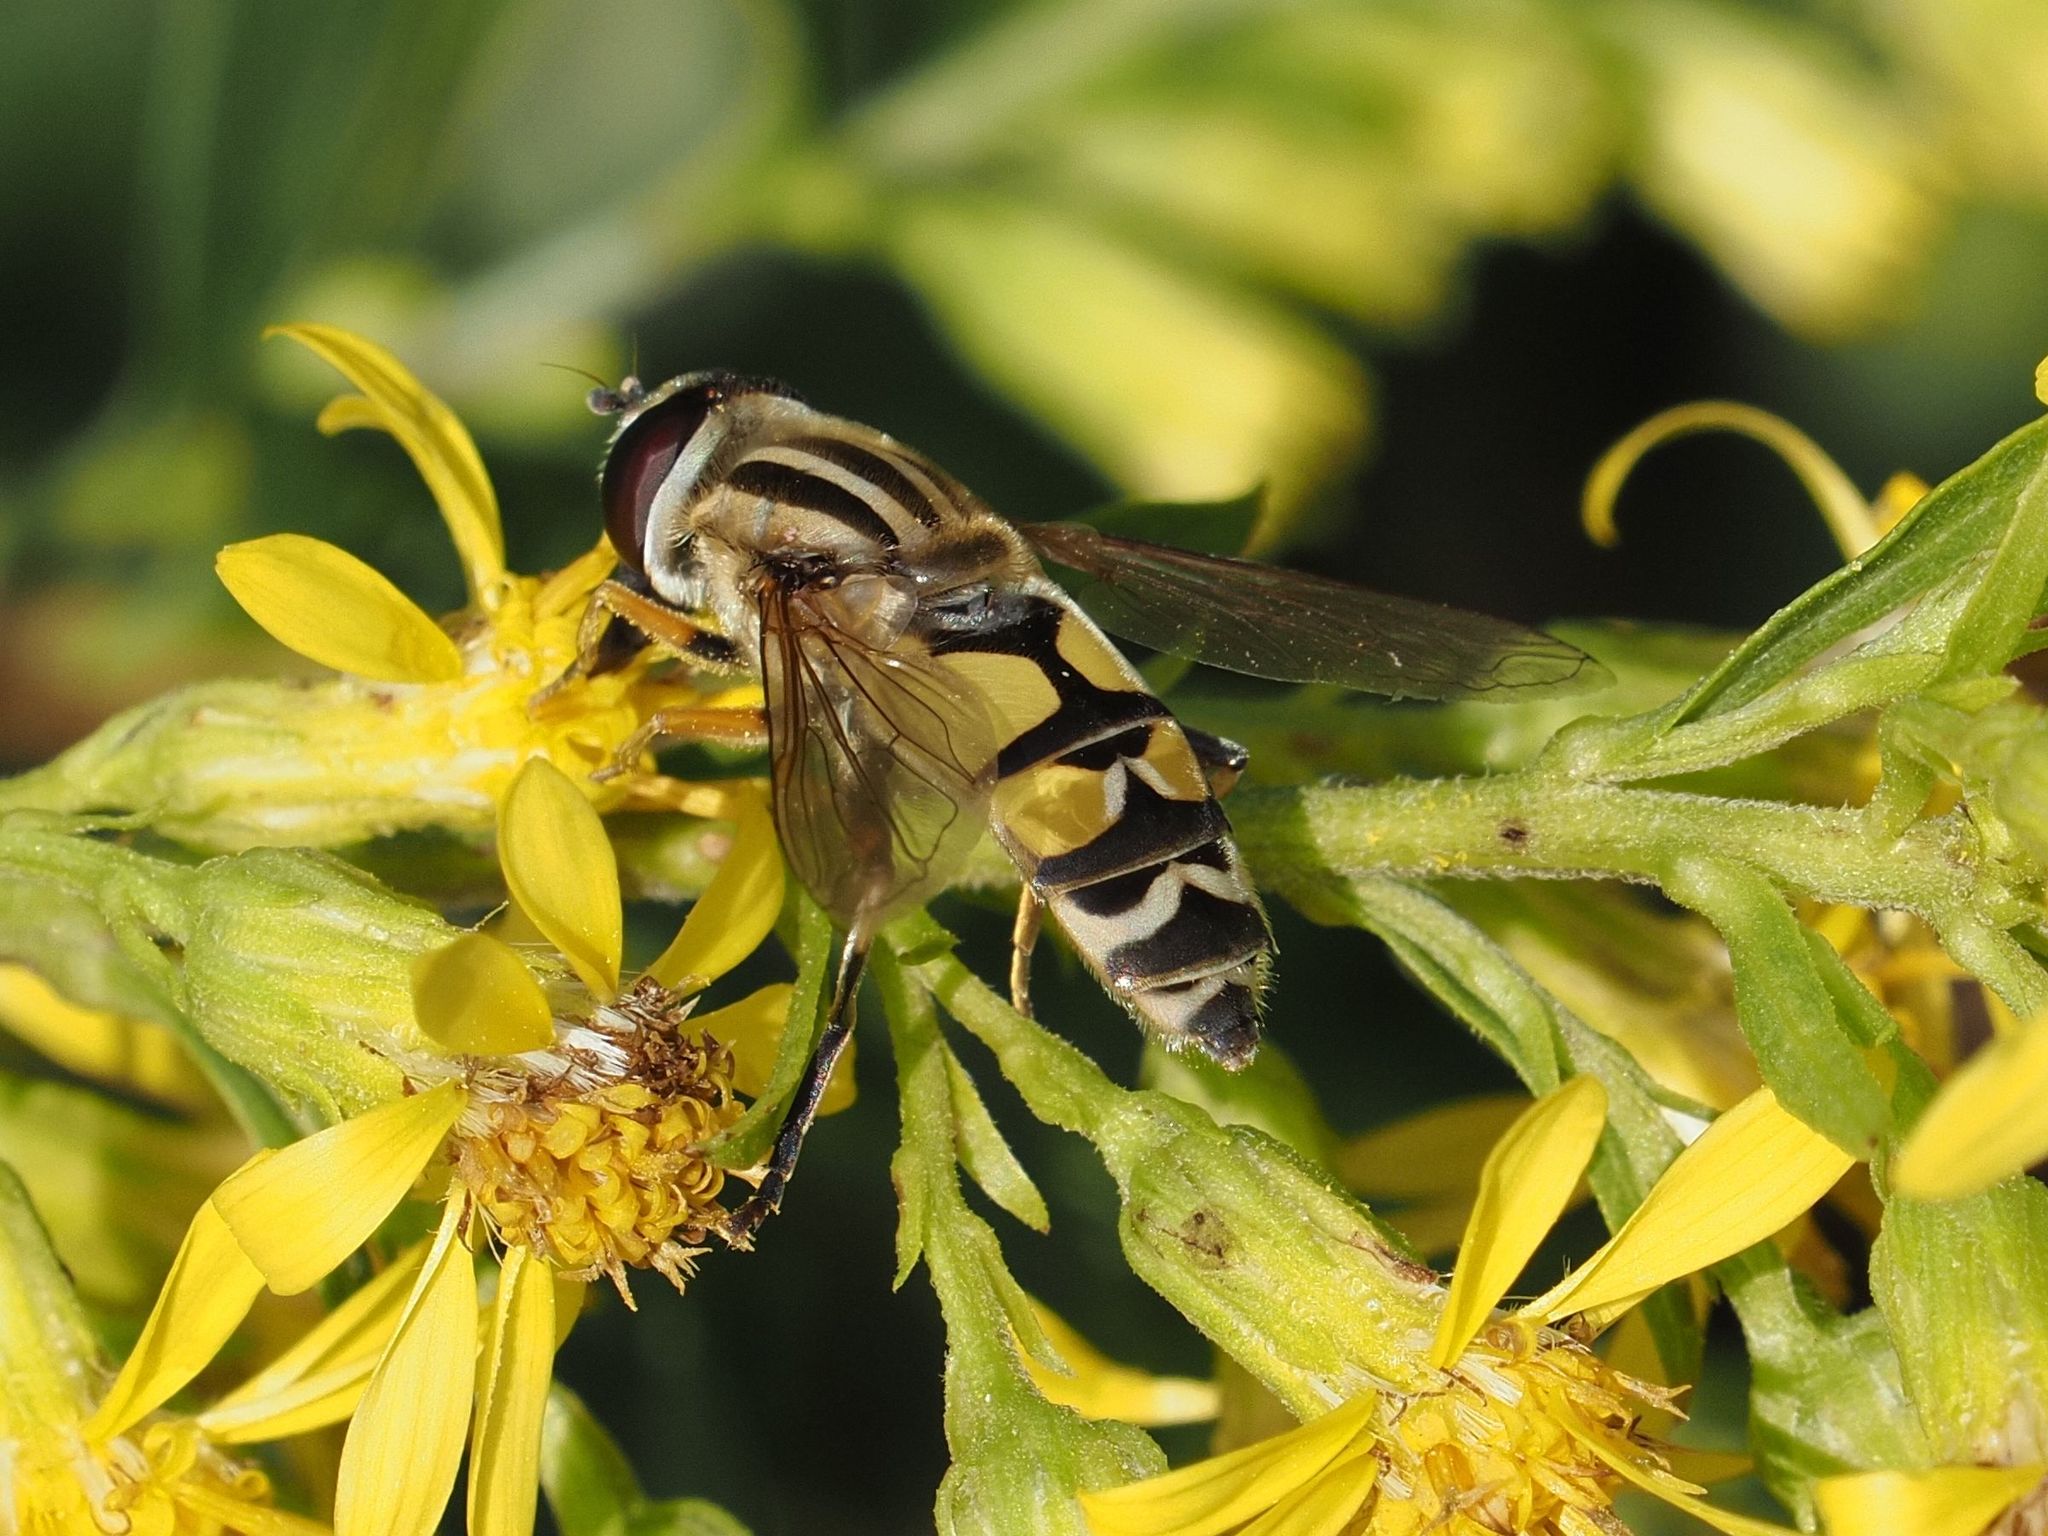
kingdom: Animalia
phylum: Arthropoda
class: Insecta
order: Diptera
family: Syrphidae
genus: Helophilus
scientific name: Helophilus trivittatus
